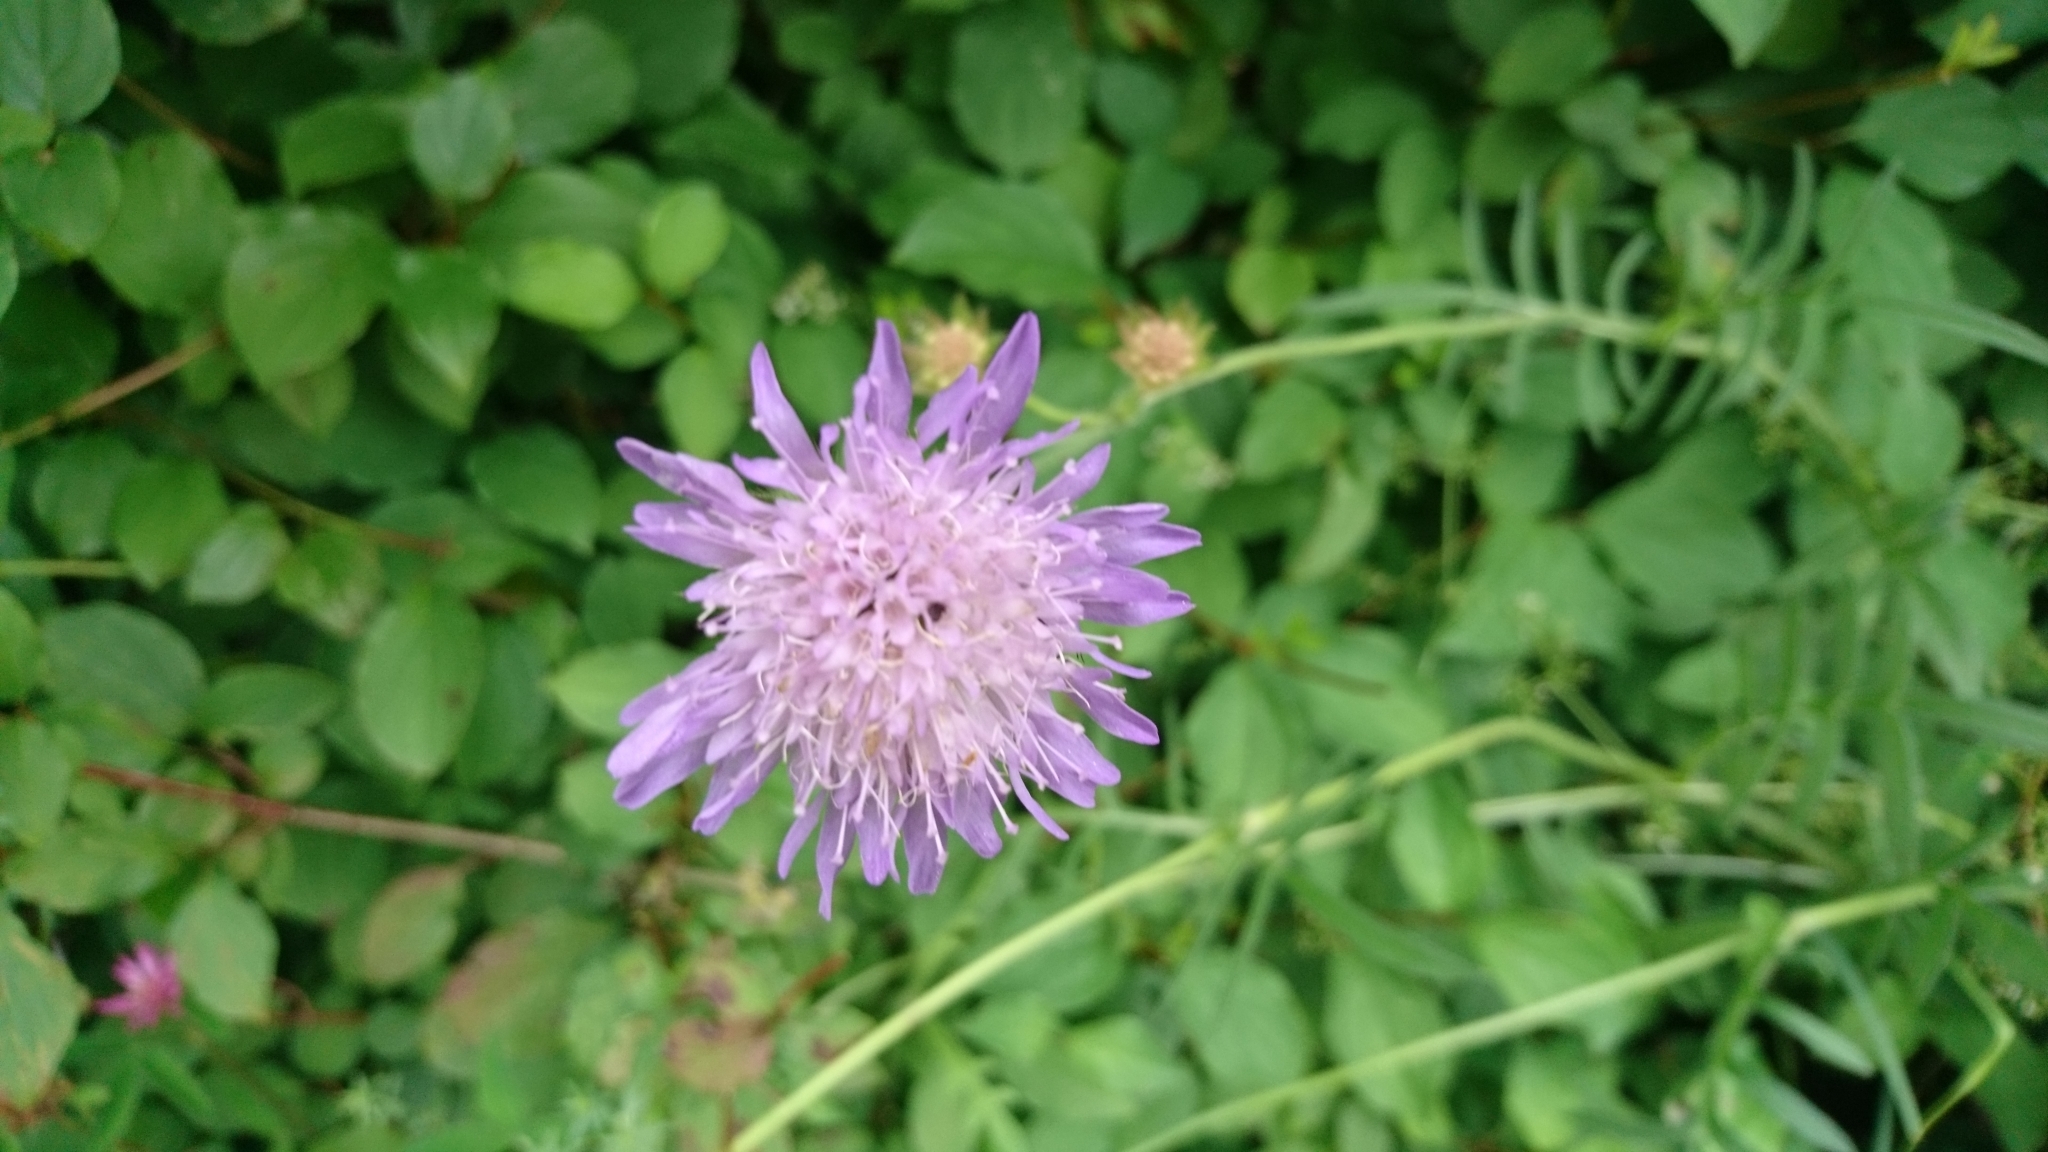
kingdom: Plantae
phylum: Tracheophyta
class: Magnoliopsida
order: Dipsacales
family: Caprifoliaceae
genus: Knautia
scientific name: Knautia arvensis
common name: Field scabiosa
